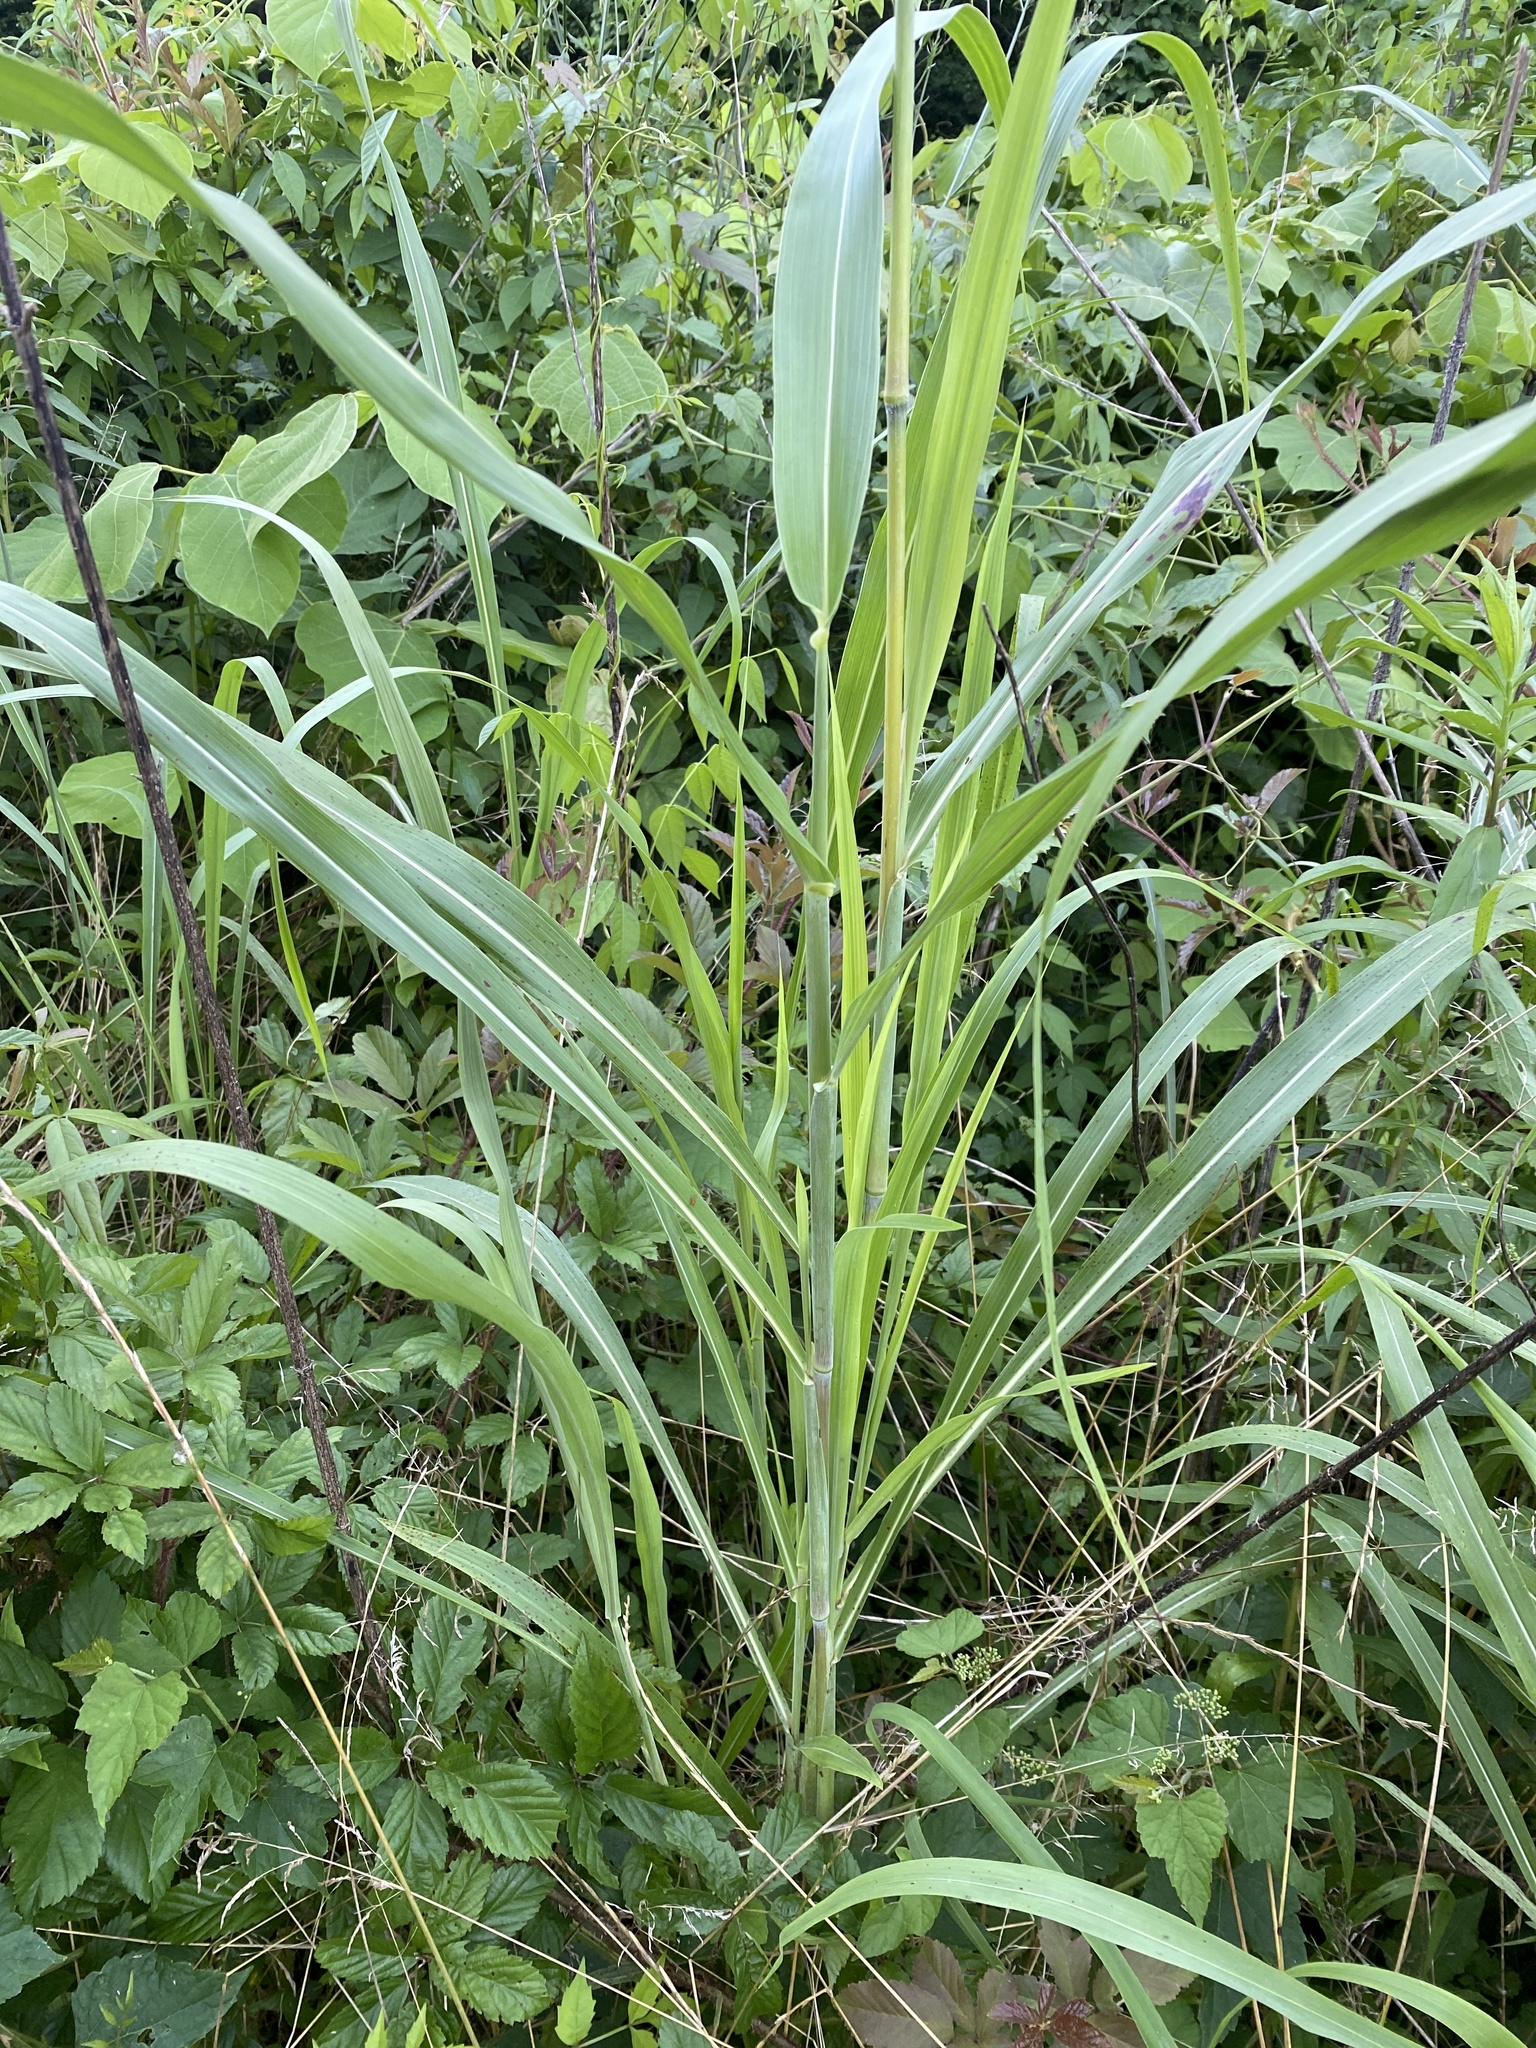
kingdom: Plantae
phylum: Tracheophyta
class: Liliopsida
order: Poales
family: Poaceae
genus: Sorghum
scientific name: Sorghum halepense
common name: Johnson-grass
